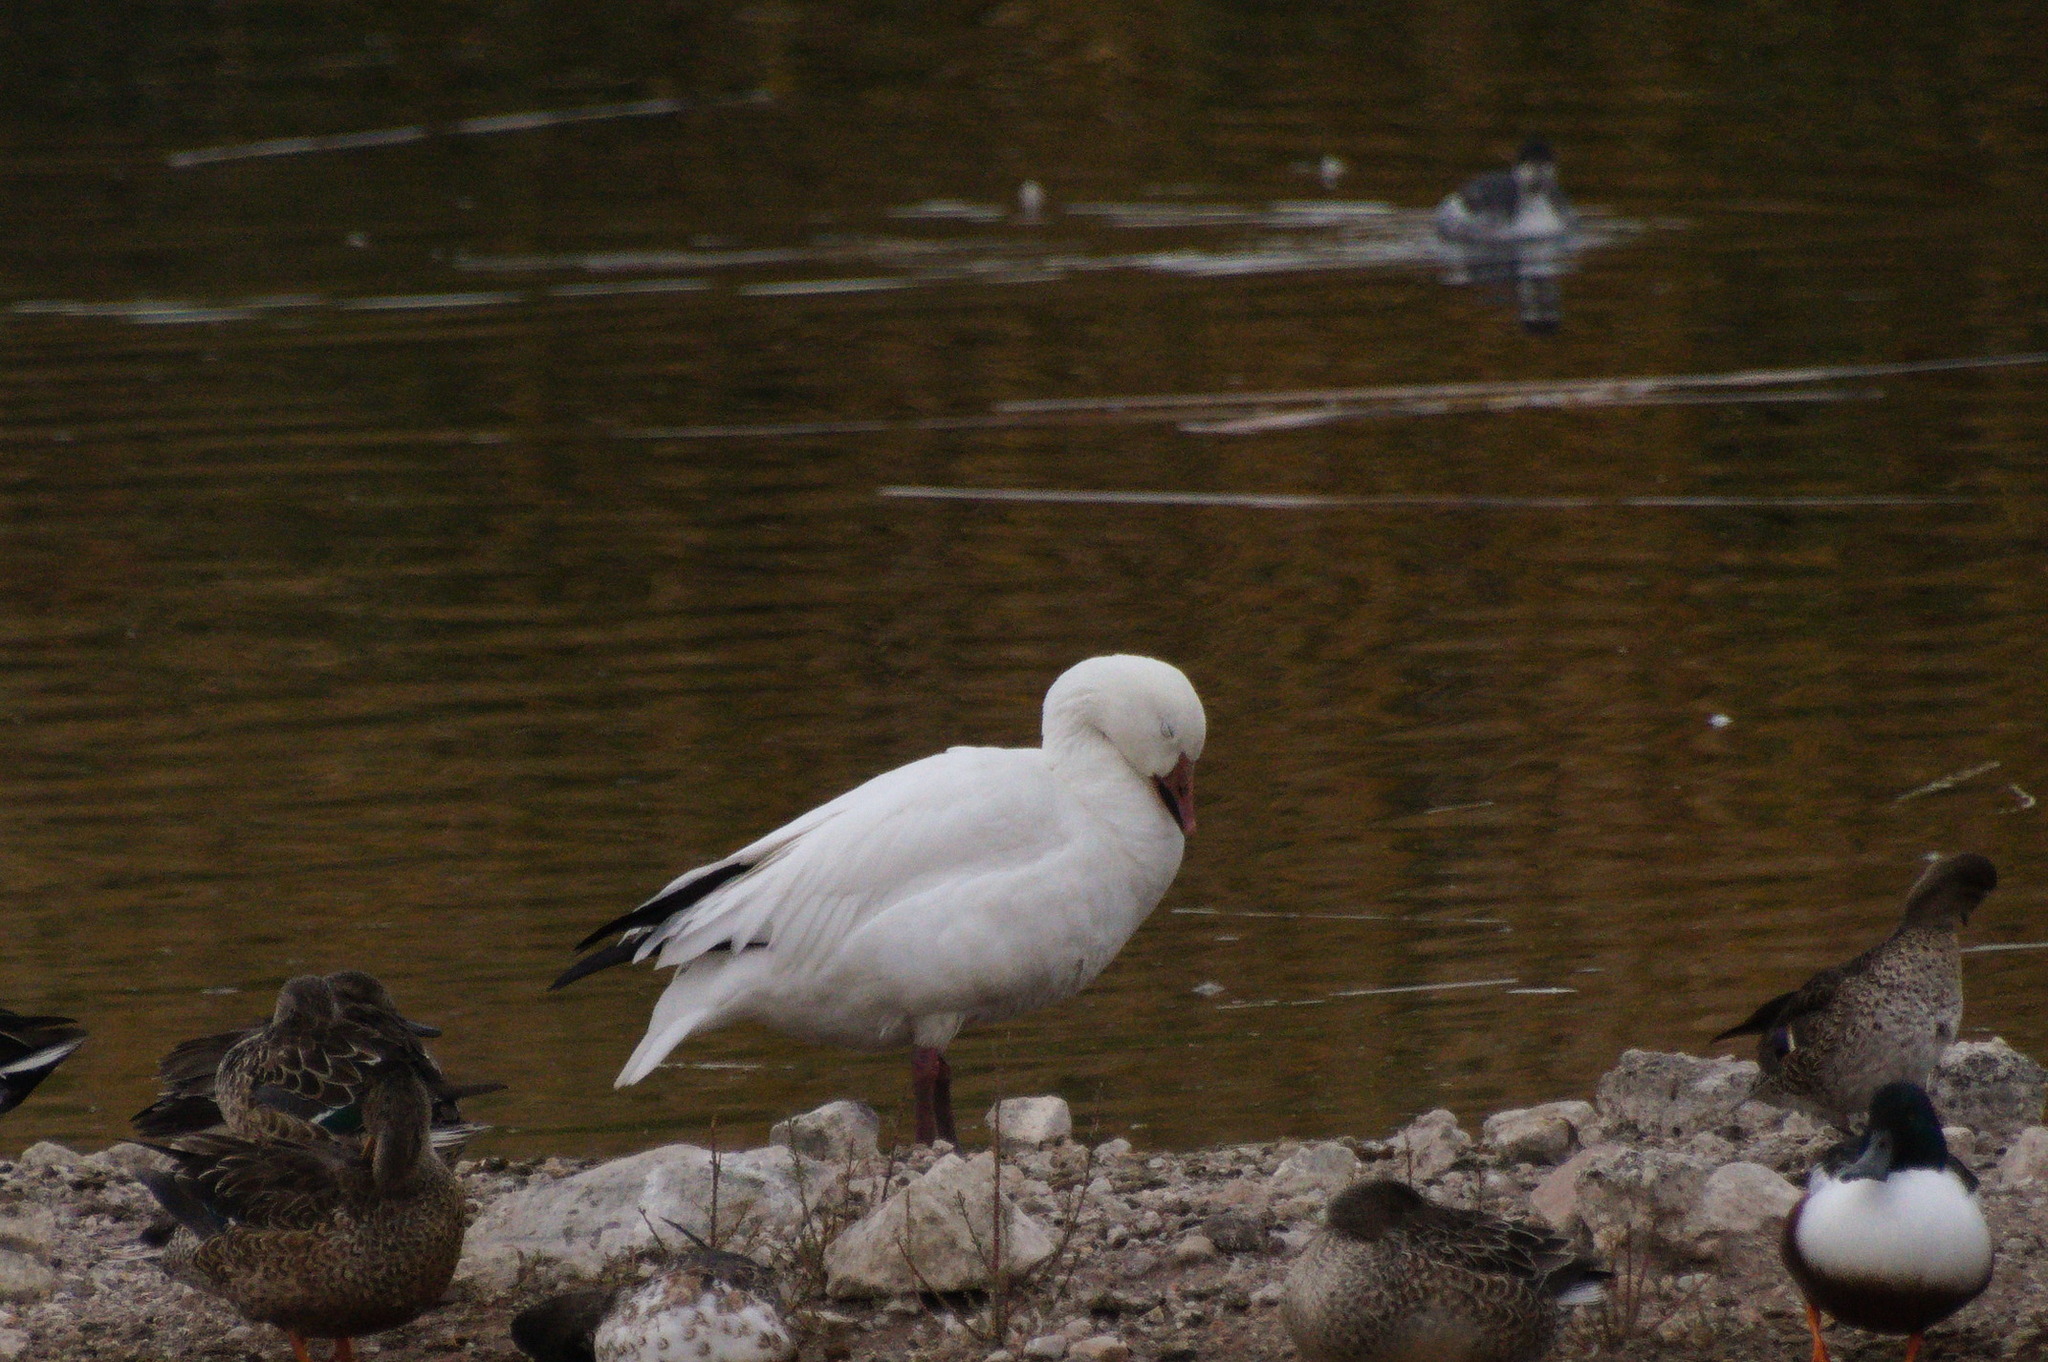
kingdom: Animalia
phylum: Chordata
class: Aves
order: Anseriformes
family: Anatidae
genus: Anser
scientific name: Anser caerulescens
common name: Snow goose
